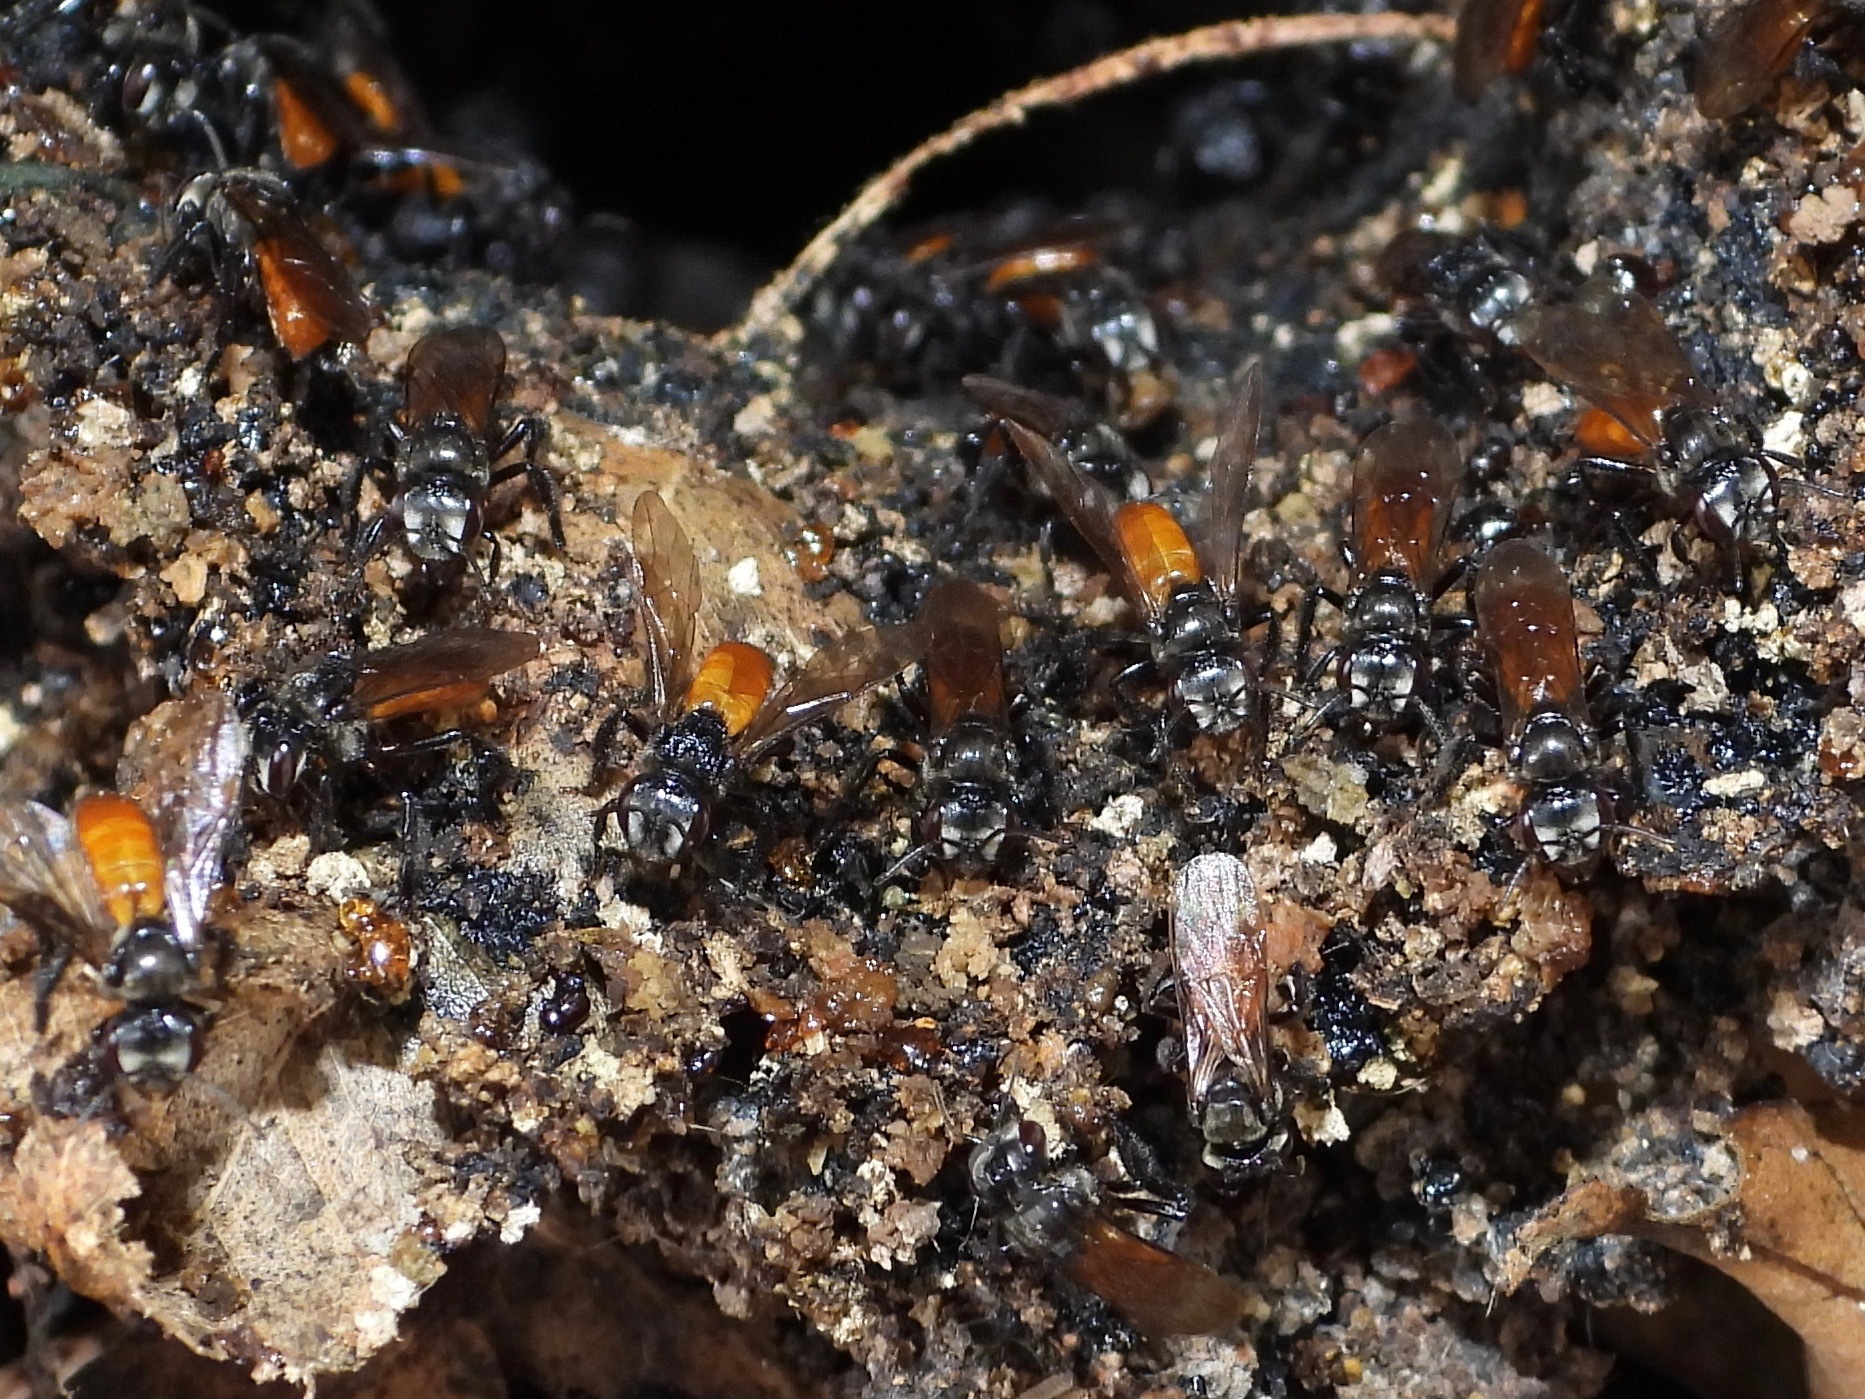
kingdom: Animalia
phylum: Arthropoda
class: Insecta
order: Hymenoptera
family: Apidae
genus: Trigona
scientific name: Trigona fulviventris
